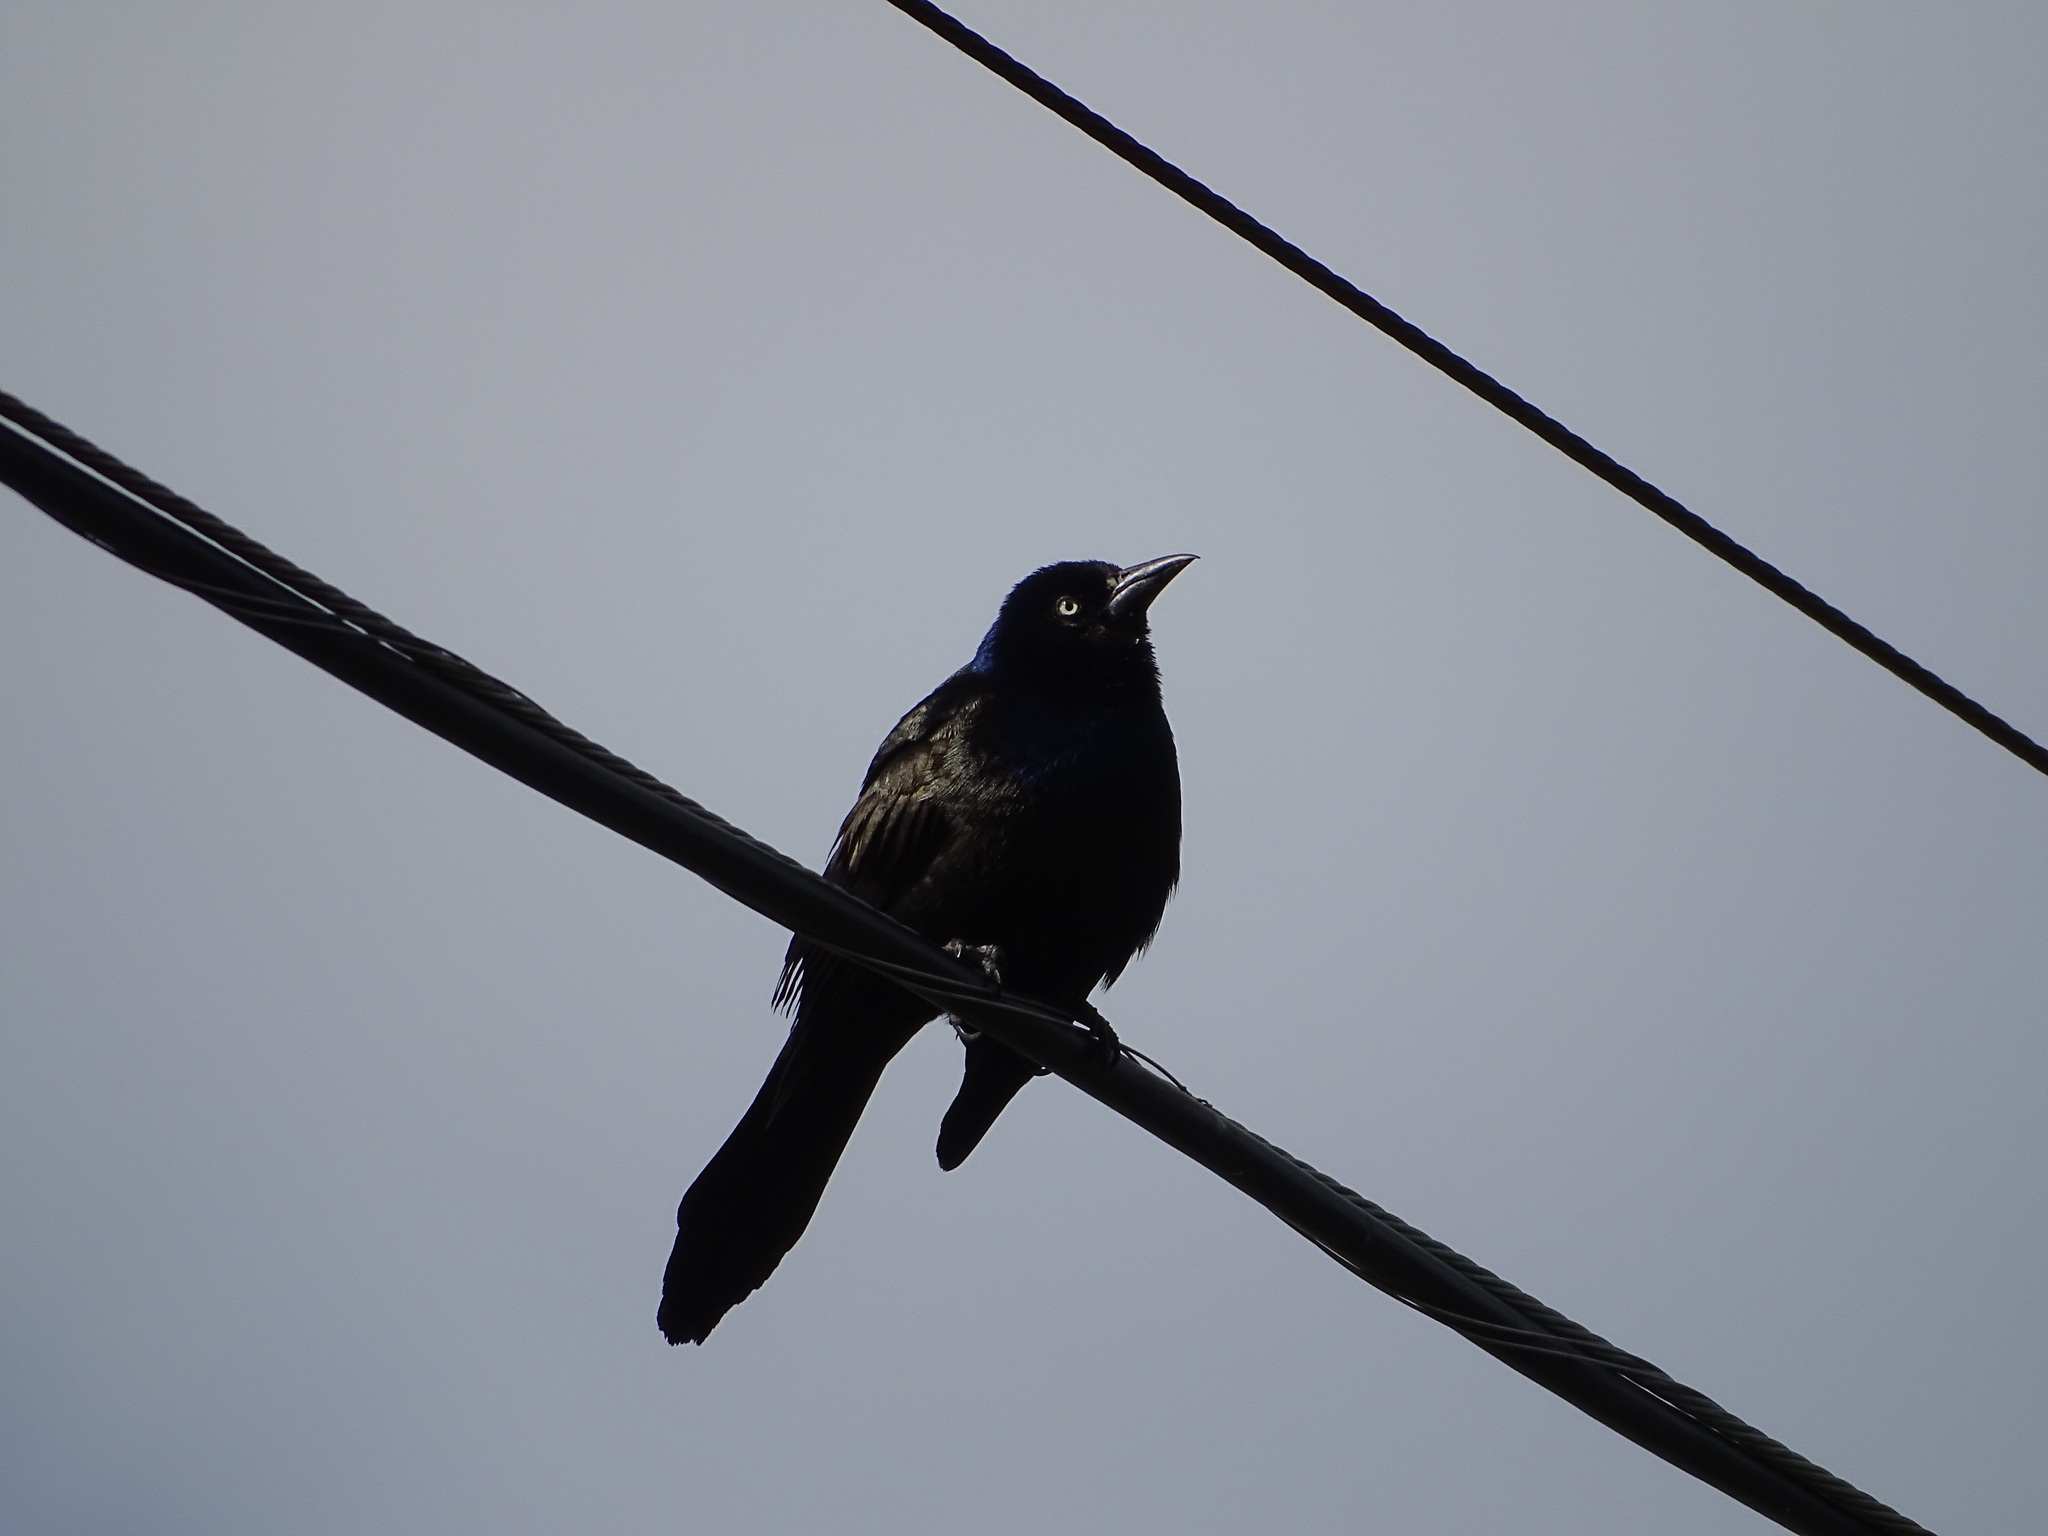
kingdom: Animalia
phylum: Chordata
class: Aves
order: Passeriformes
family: Icteridae
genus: Quiscalus
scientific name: Quiscalus quiscula
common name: Common grackle
